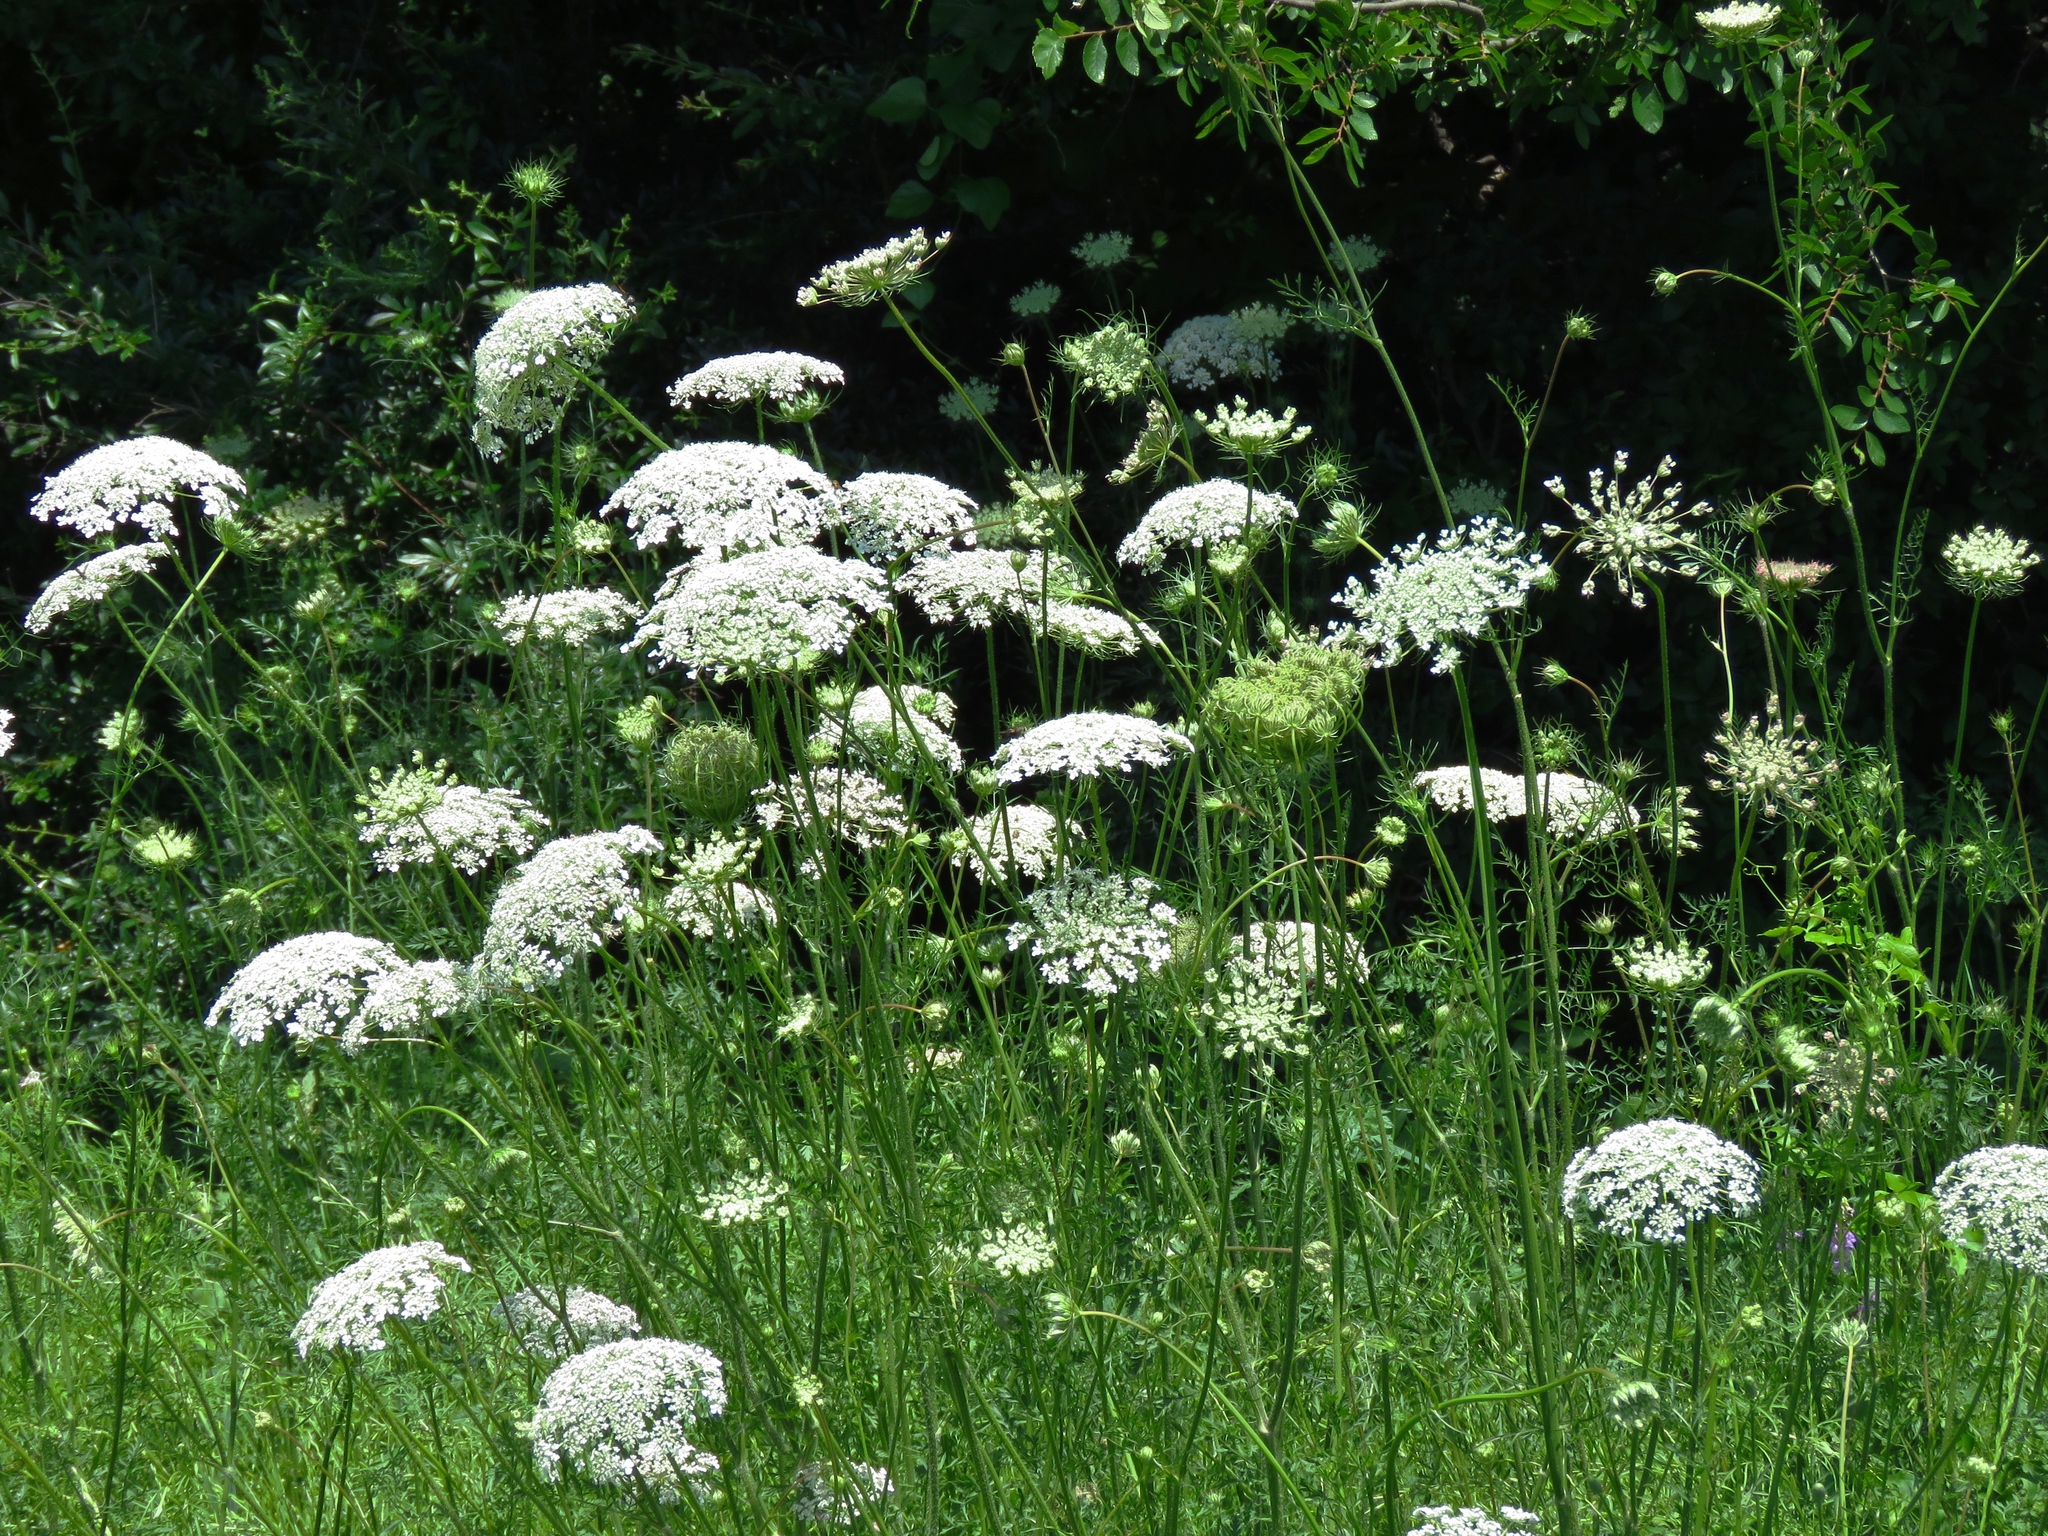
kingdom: Plantae
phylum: Tracheophyta
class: Magnoliopsida
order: Apiales
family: Apiaceae
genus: Daucus
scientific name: Daucus carota
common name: Wild carrot
